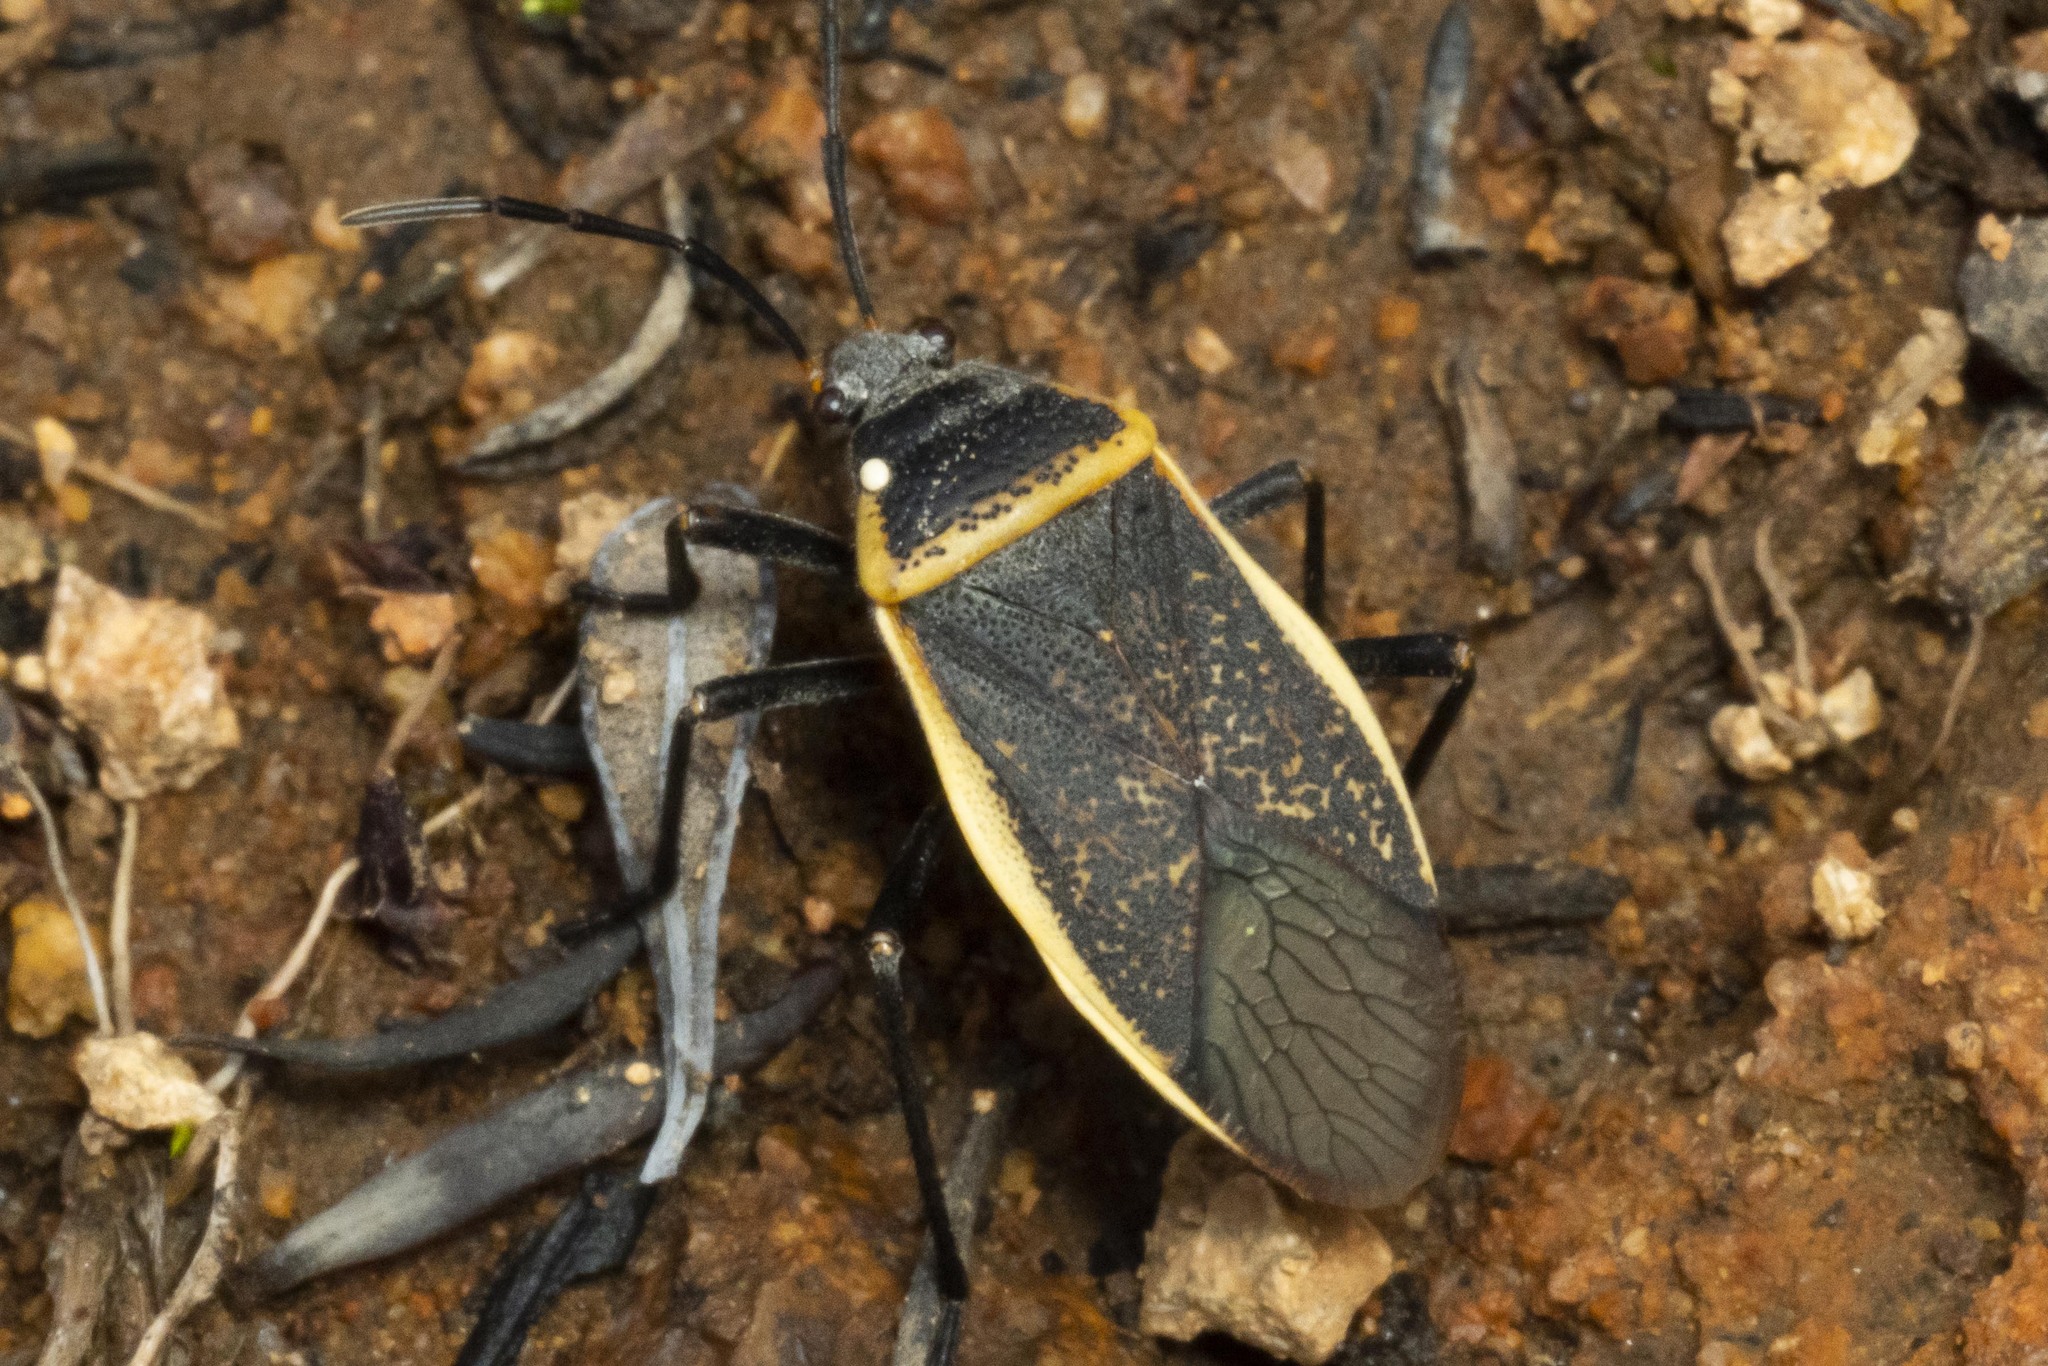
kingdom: Animalia
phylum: Arthropoda
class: Insecta
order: Hemiptera
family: Largidae
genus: Largus
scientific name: Largus californicus
